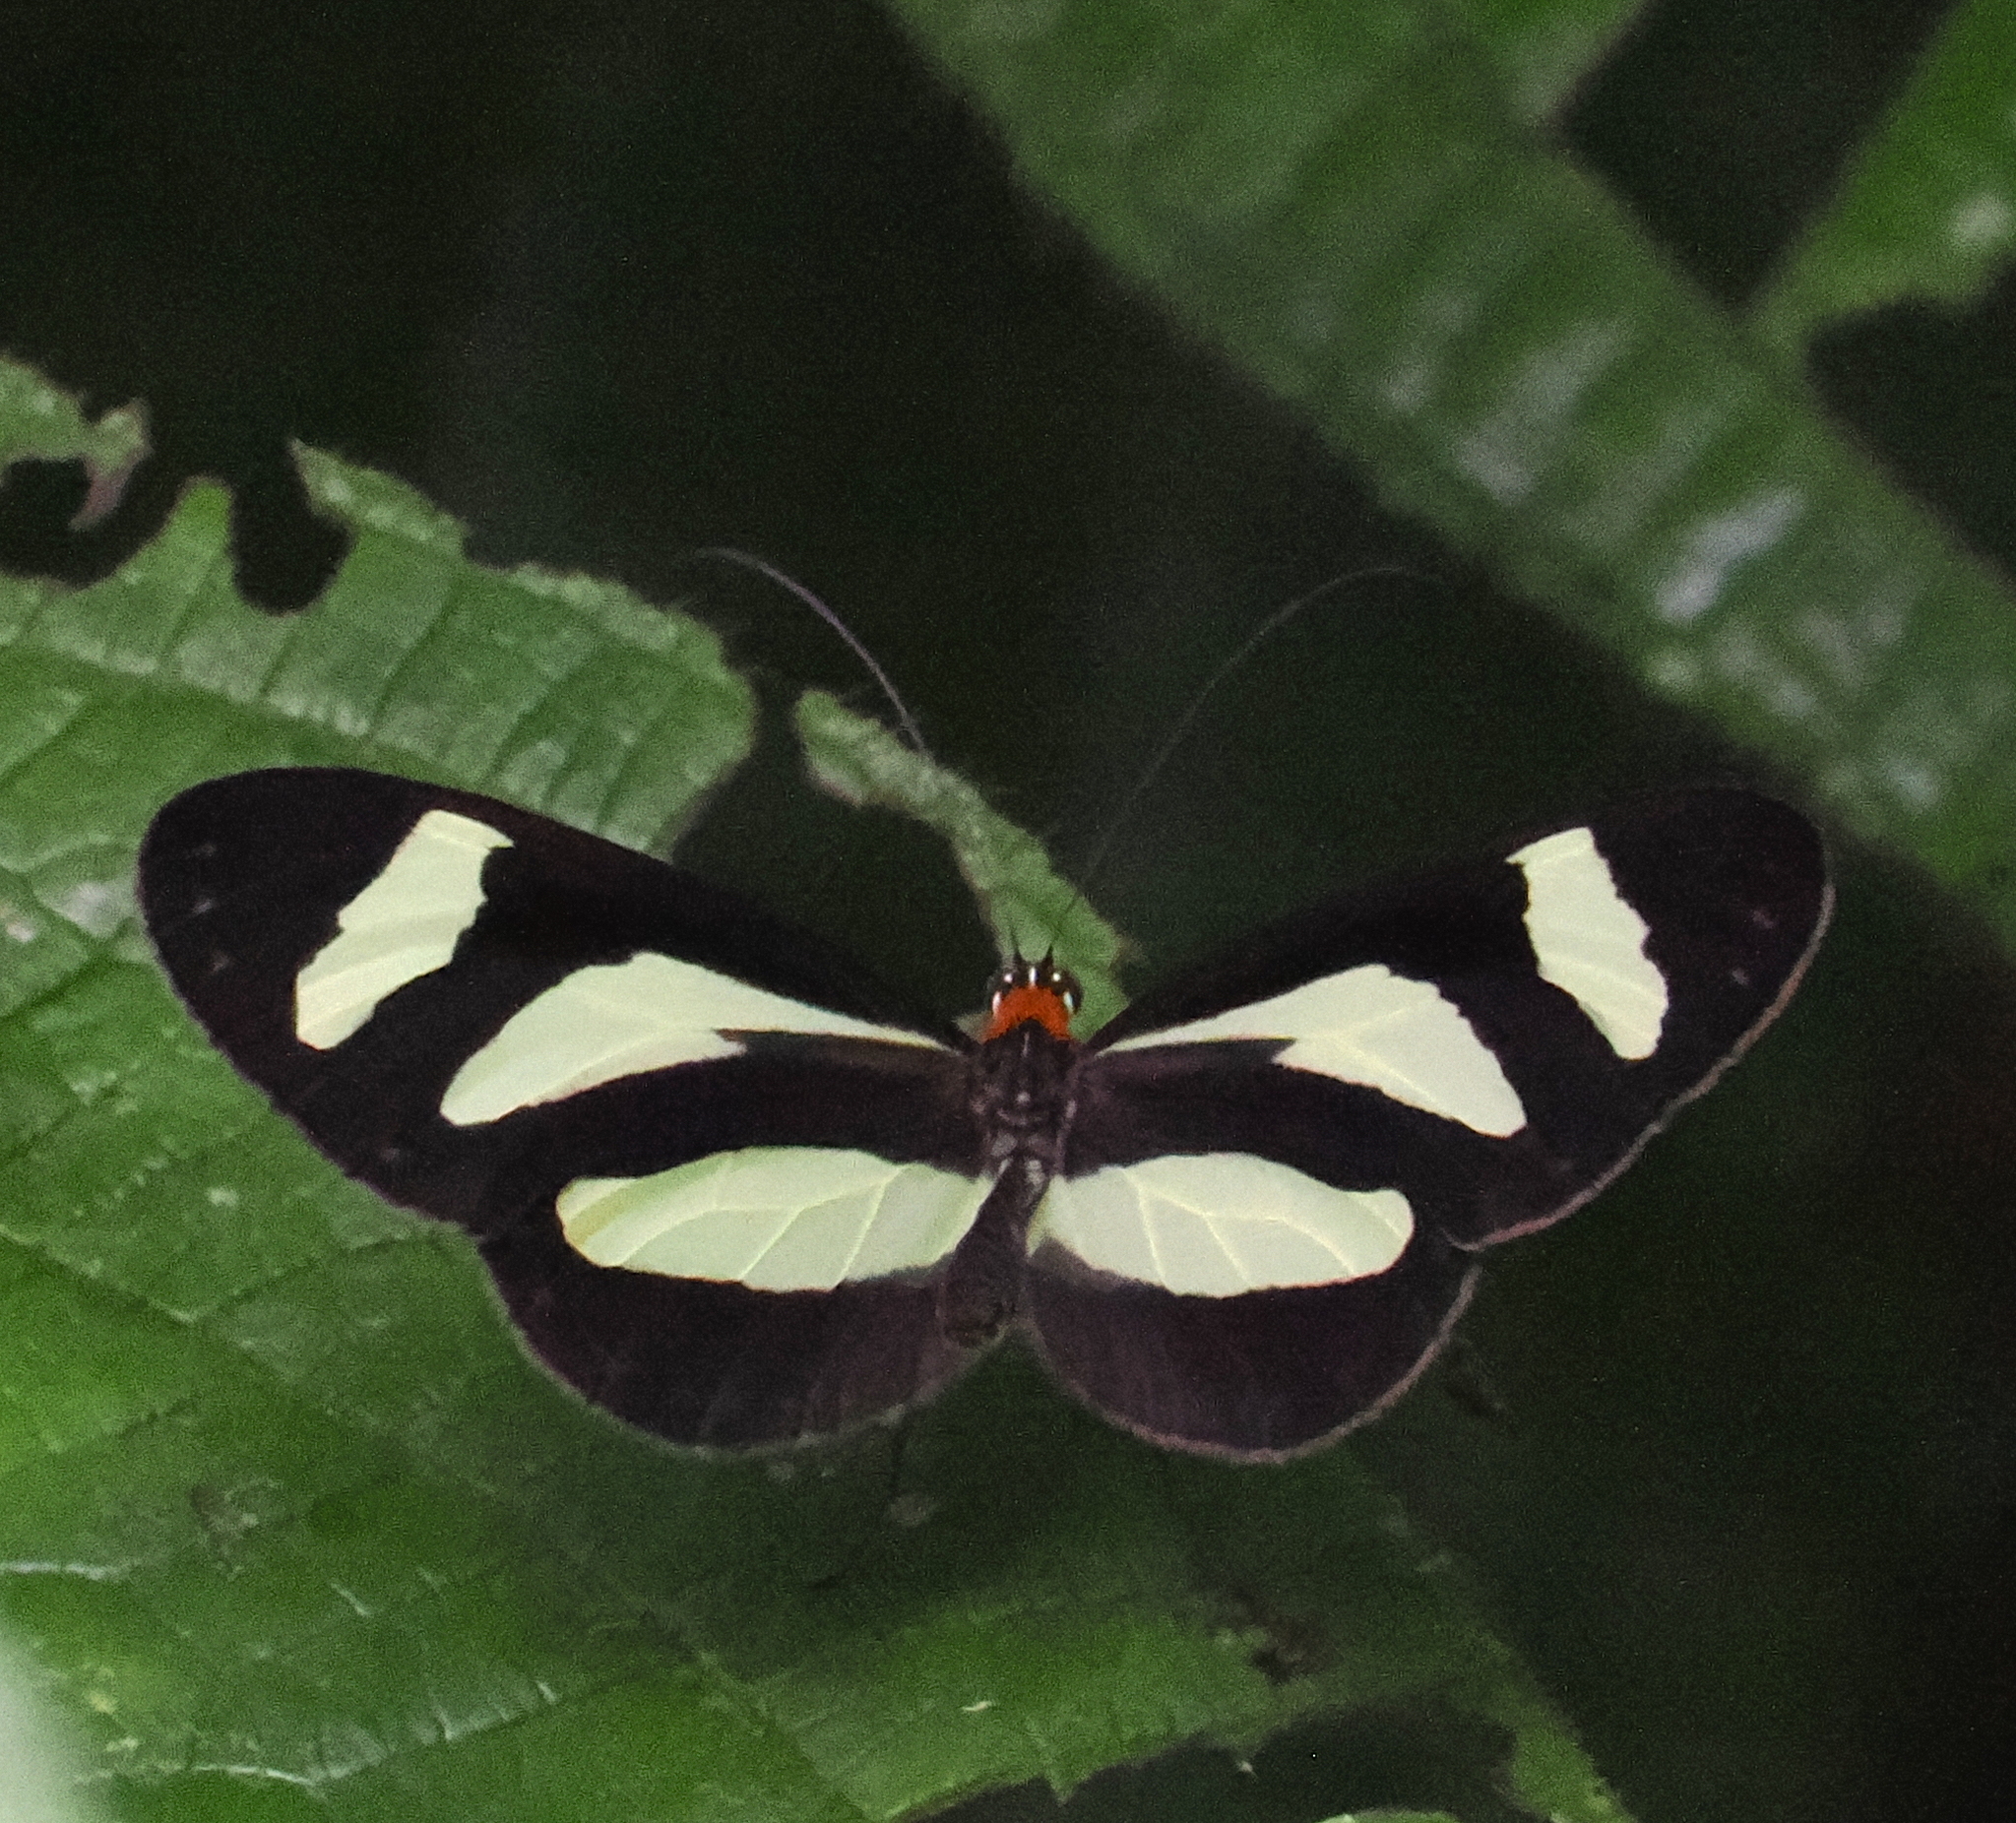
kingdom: Animalia
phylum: Arthropoda
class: Insecta
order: Lepidoptera
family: Nymphalidae
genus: Aeria
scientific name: Aeria eurimedia
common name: Banded tigerwing
